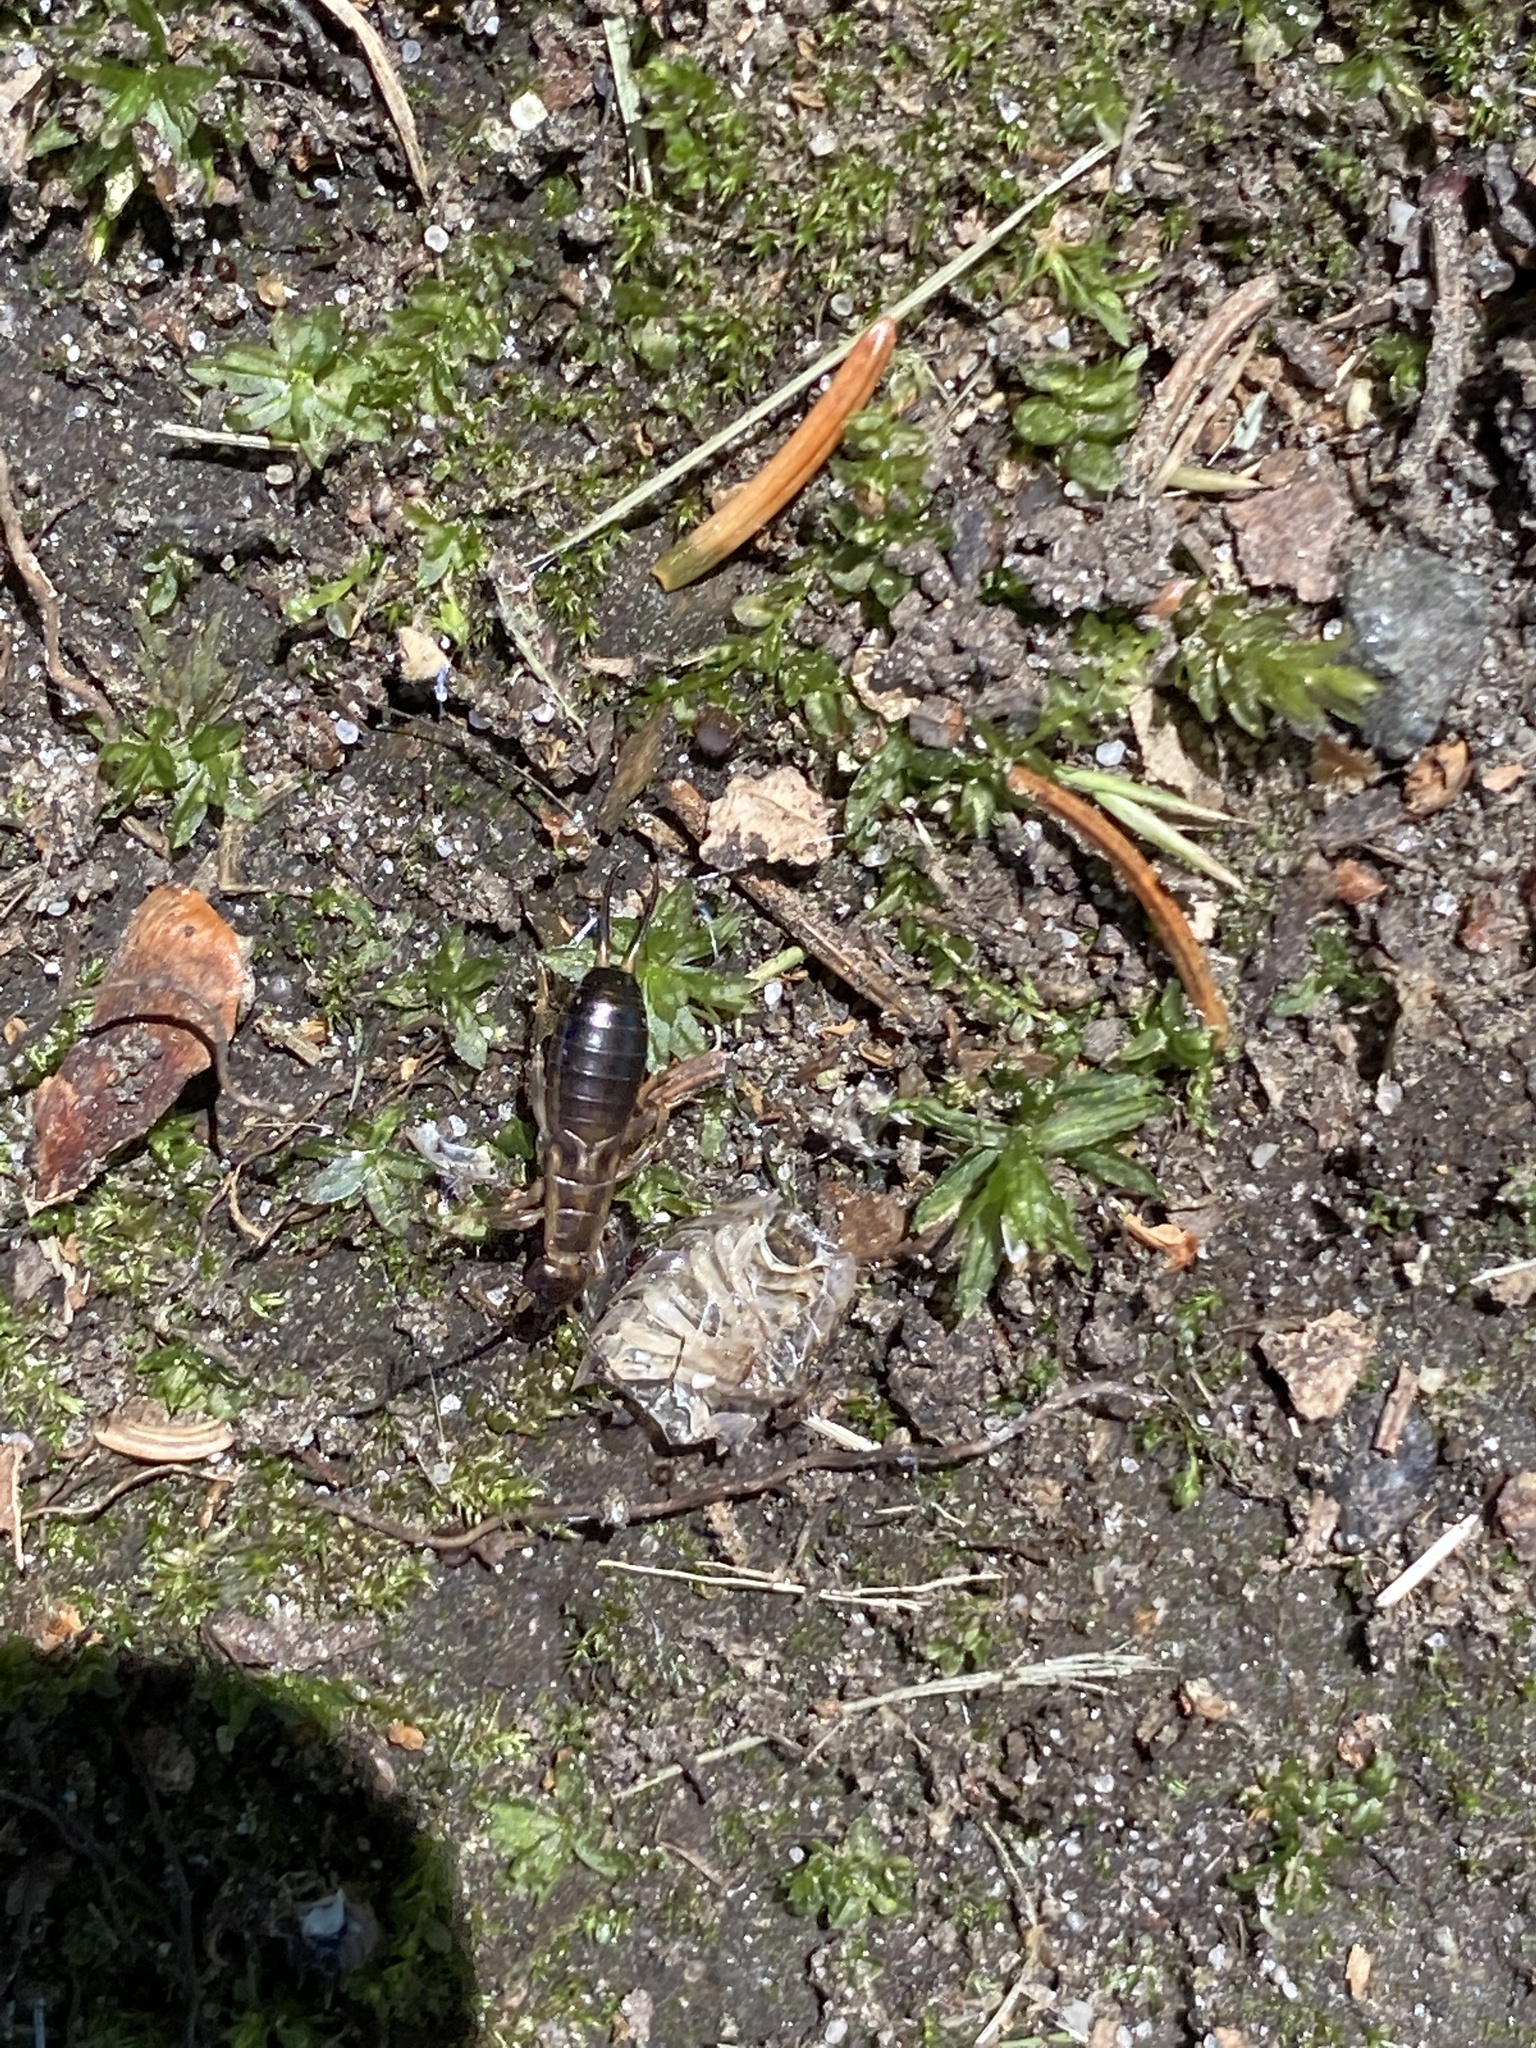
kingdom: Animalia
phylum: Arthropoda
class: Insecta
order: Dermaptera
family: Forficulidae
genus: Forficula
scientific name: Forficula
